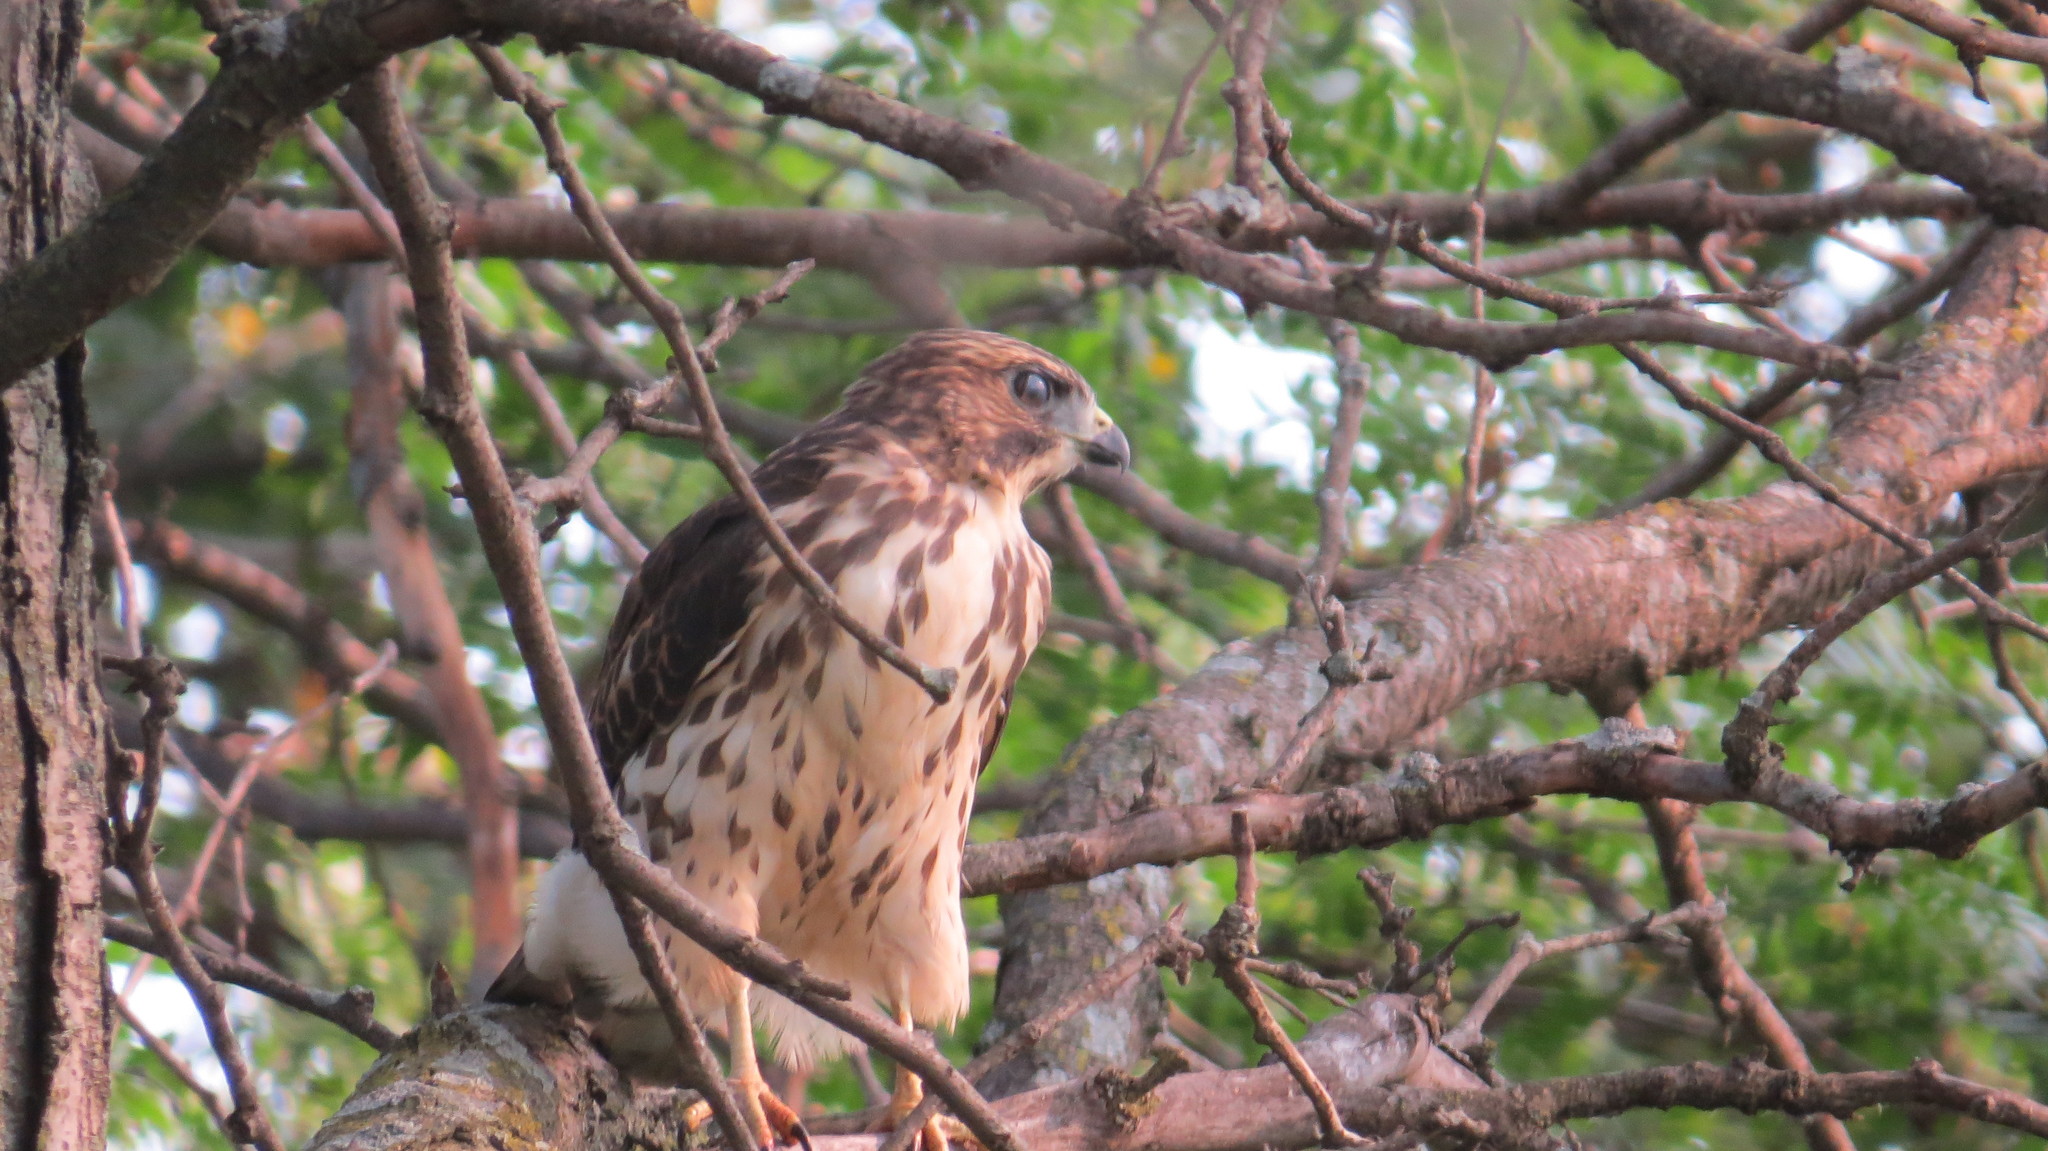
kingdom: Animalia
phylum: Chordata
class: Aves
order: Accipitriformes
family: Accipitridae
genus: Buteo
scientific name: Buteo platypterus
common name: Broad-winged hawk
